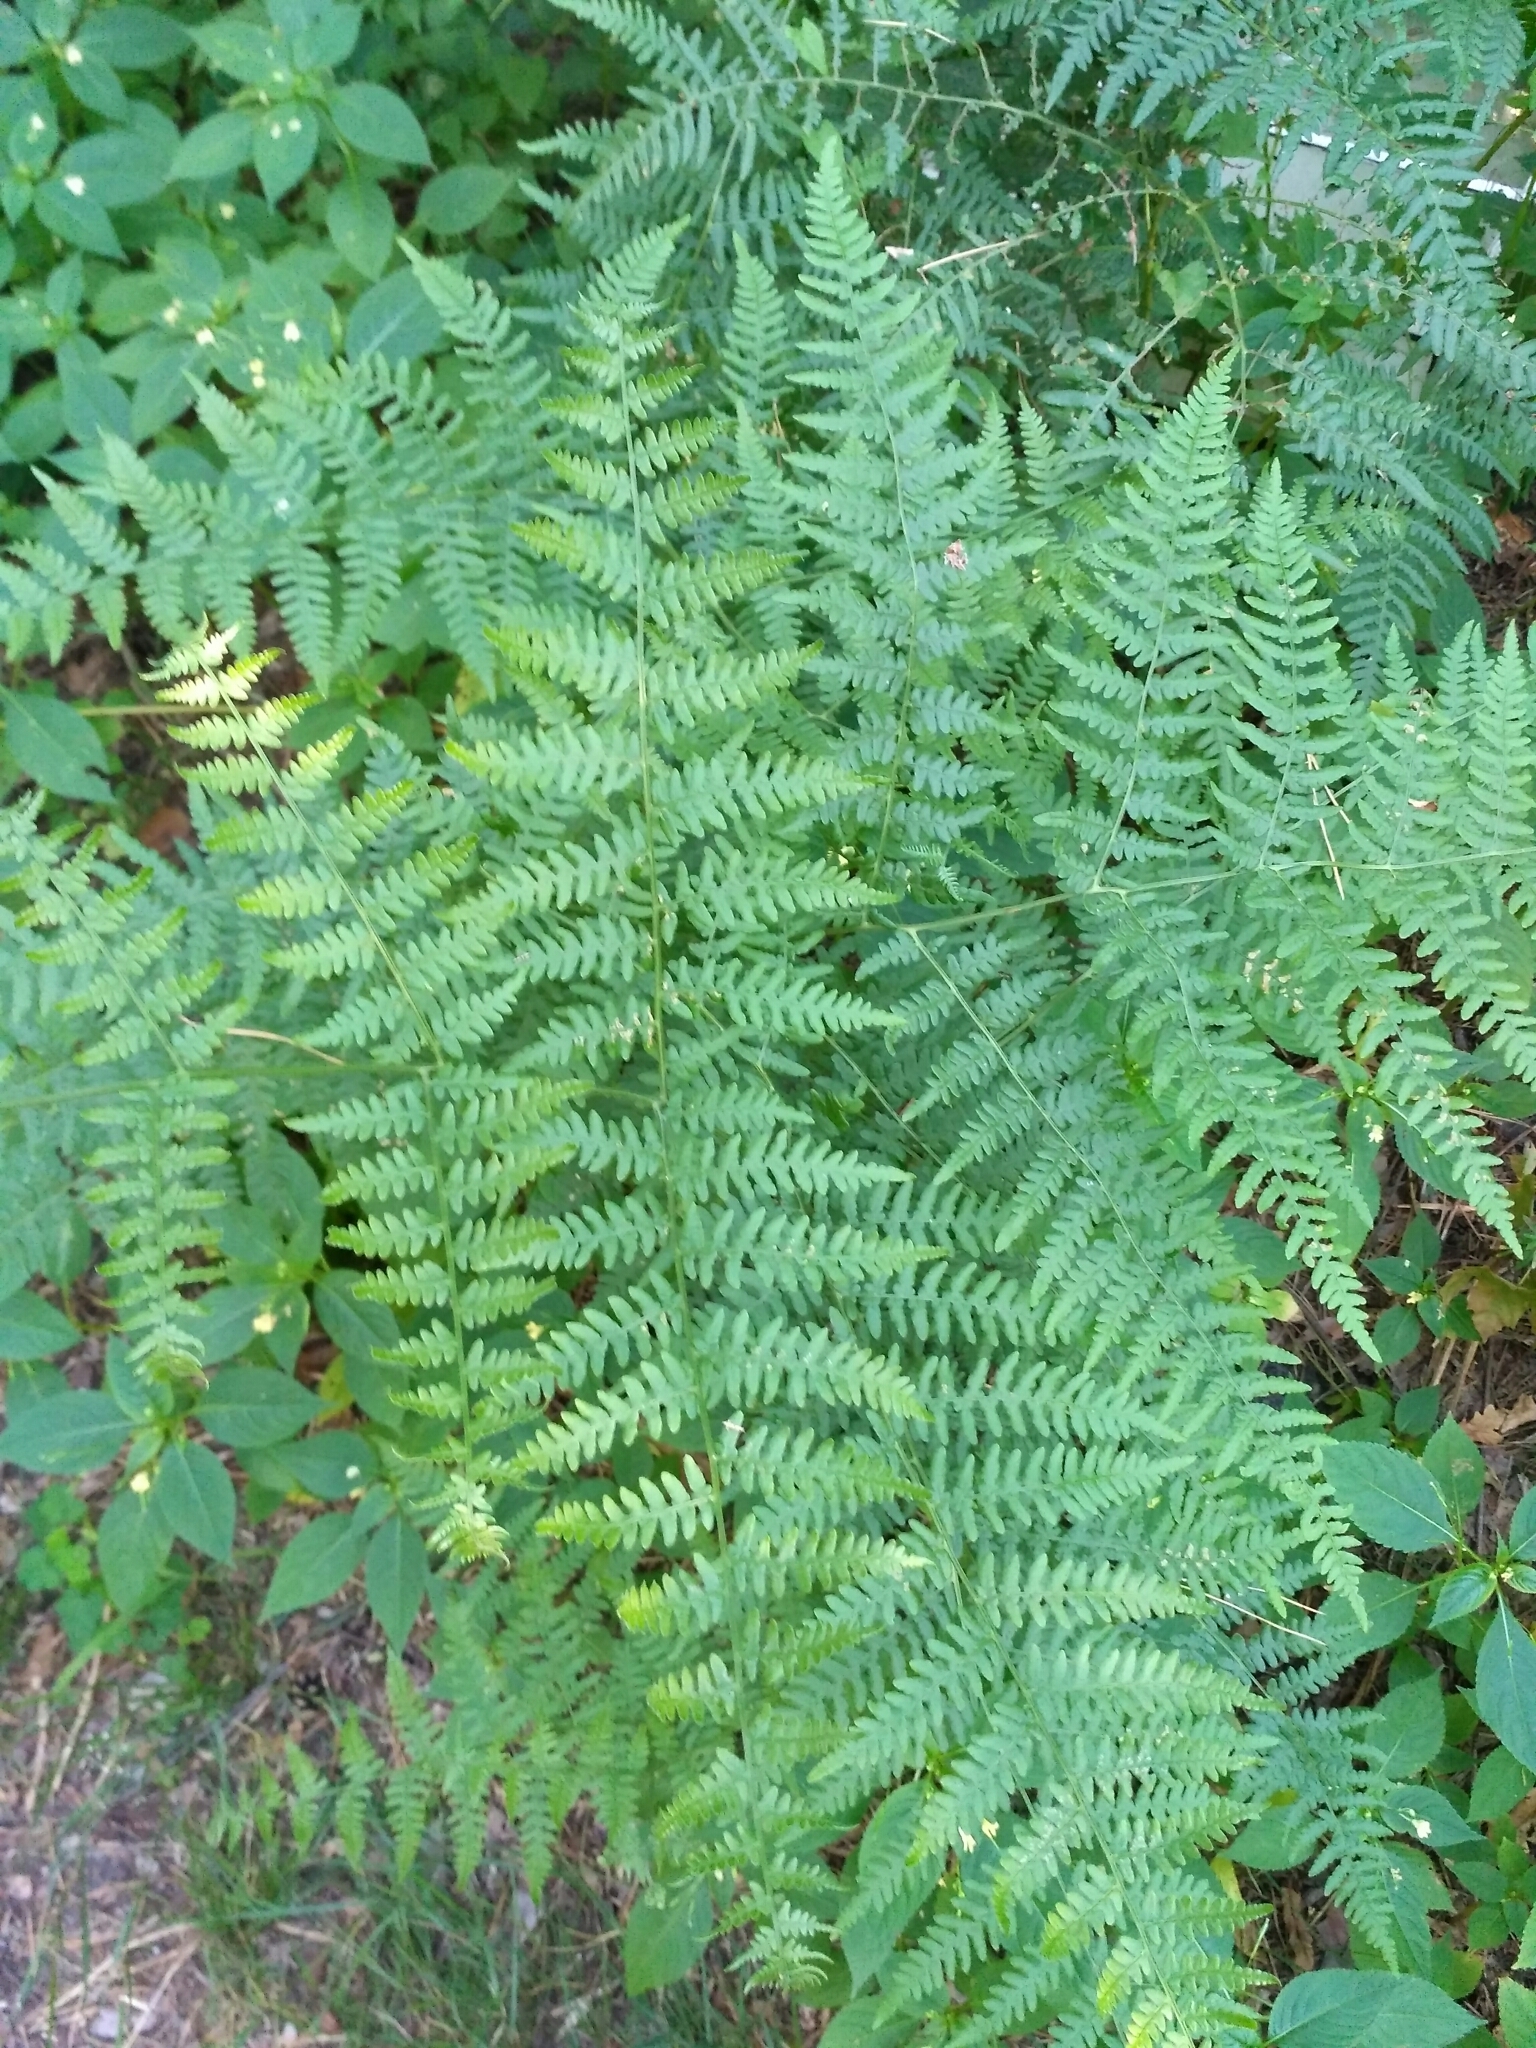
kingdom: Plantae
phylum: Tracheophyta
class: Polypodiopsida
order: Polypodiales
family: Dennstaedtiaceae
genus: Pteridium
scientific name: Pteridium aquilinum
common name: Bracken
